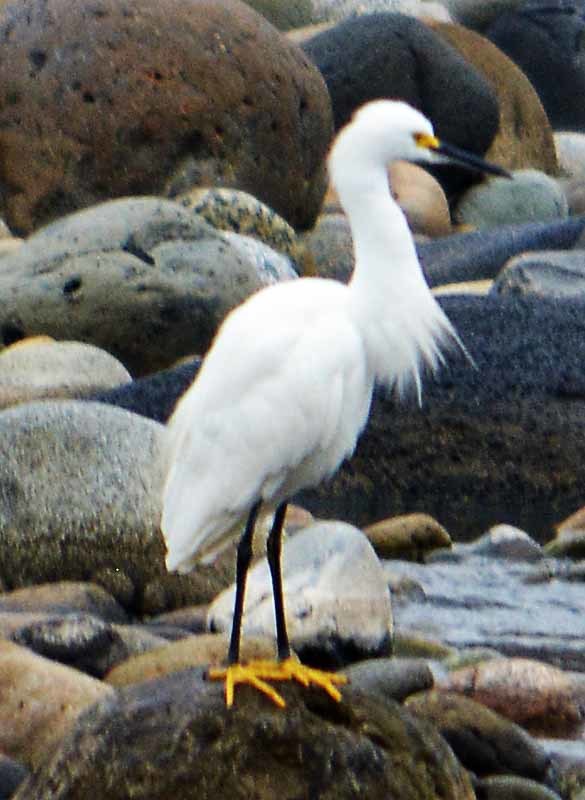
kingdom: Animalia
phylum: Chordata
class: Aves
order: Pelecaniformes
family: Ardeidae
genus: Egretta
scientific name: Egretta thula
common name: Snowy egret
